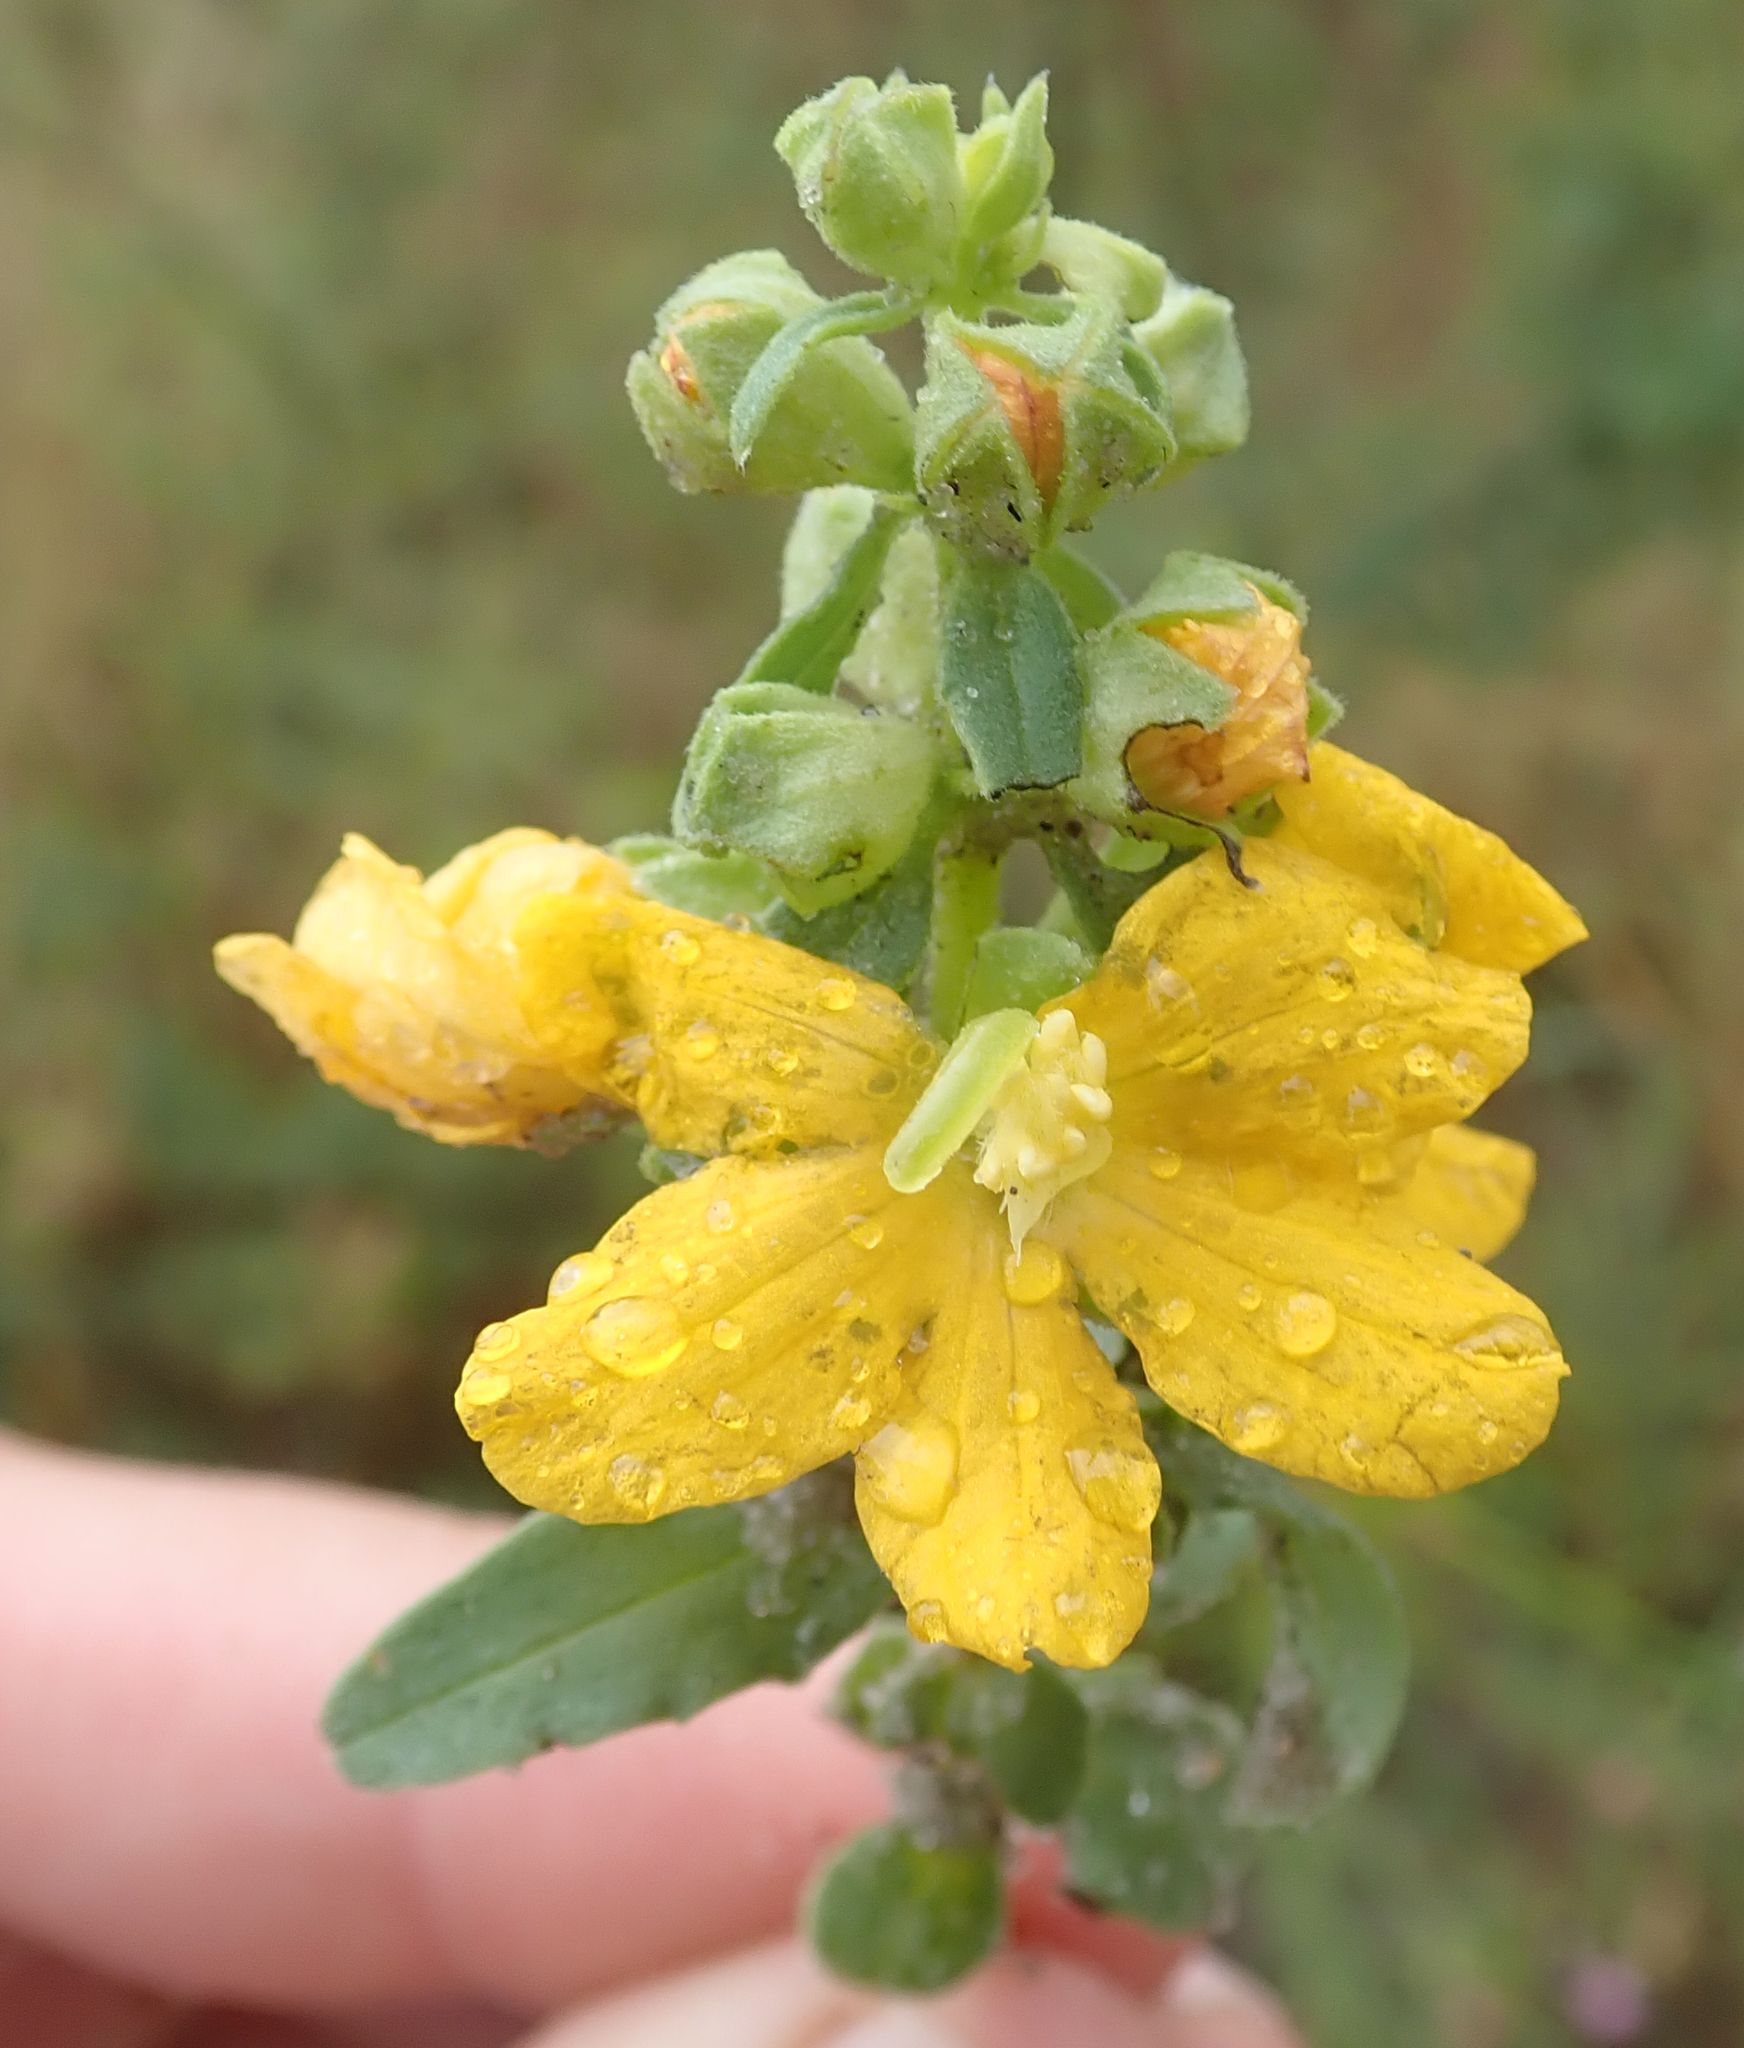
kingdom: Plantae
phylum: Tracheophyta
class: Magnoliopsida
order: Lamiales
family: Orobanchaceae
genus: Alectra
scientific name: Alectra picta
